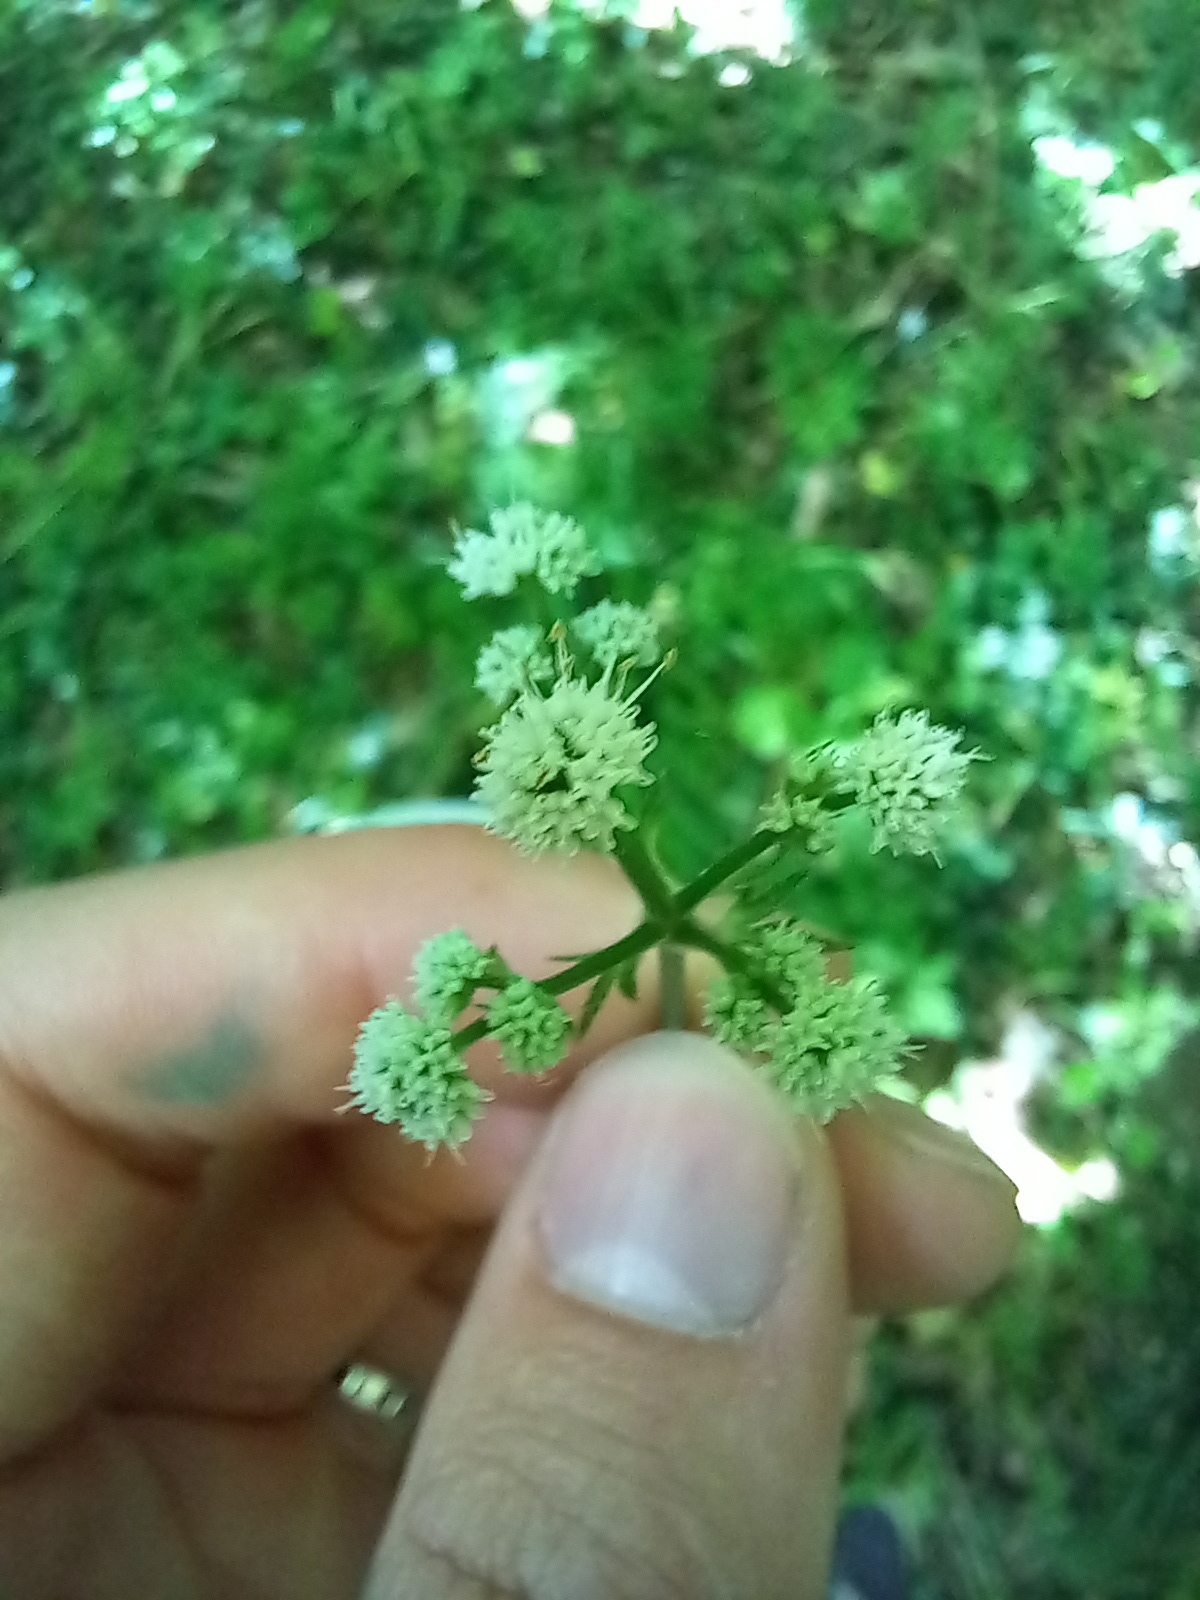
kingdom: Plantae
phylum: Tracheophyta
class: Magnoliopsida
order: Apiales
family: Apiaceae
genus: Sanicula
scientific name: Sanicula europaea
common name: Sanicle
